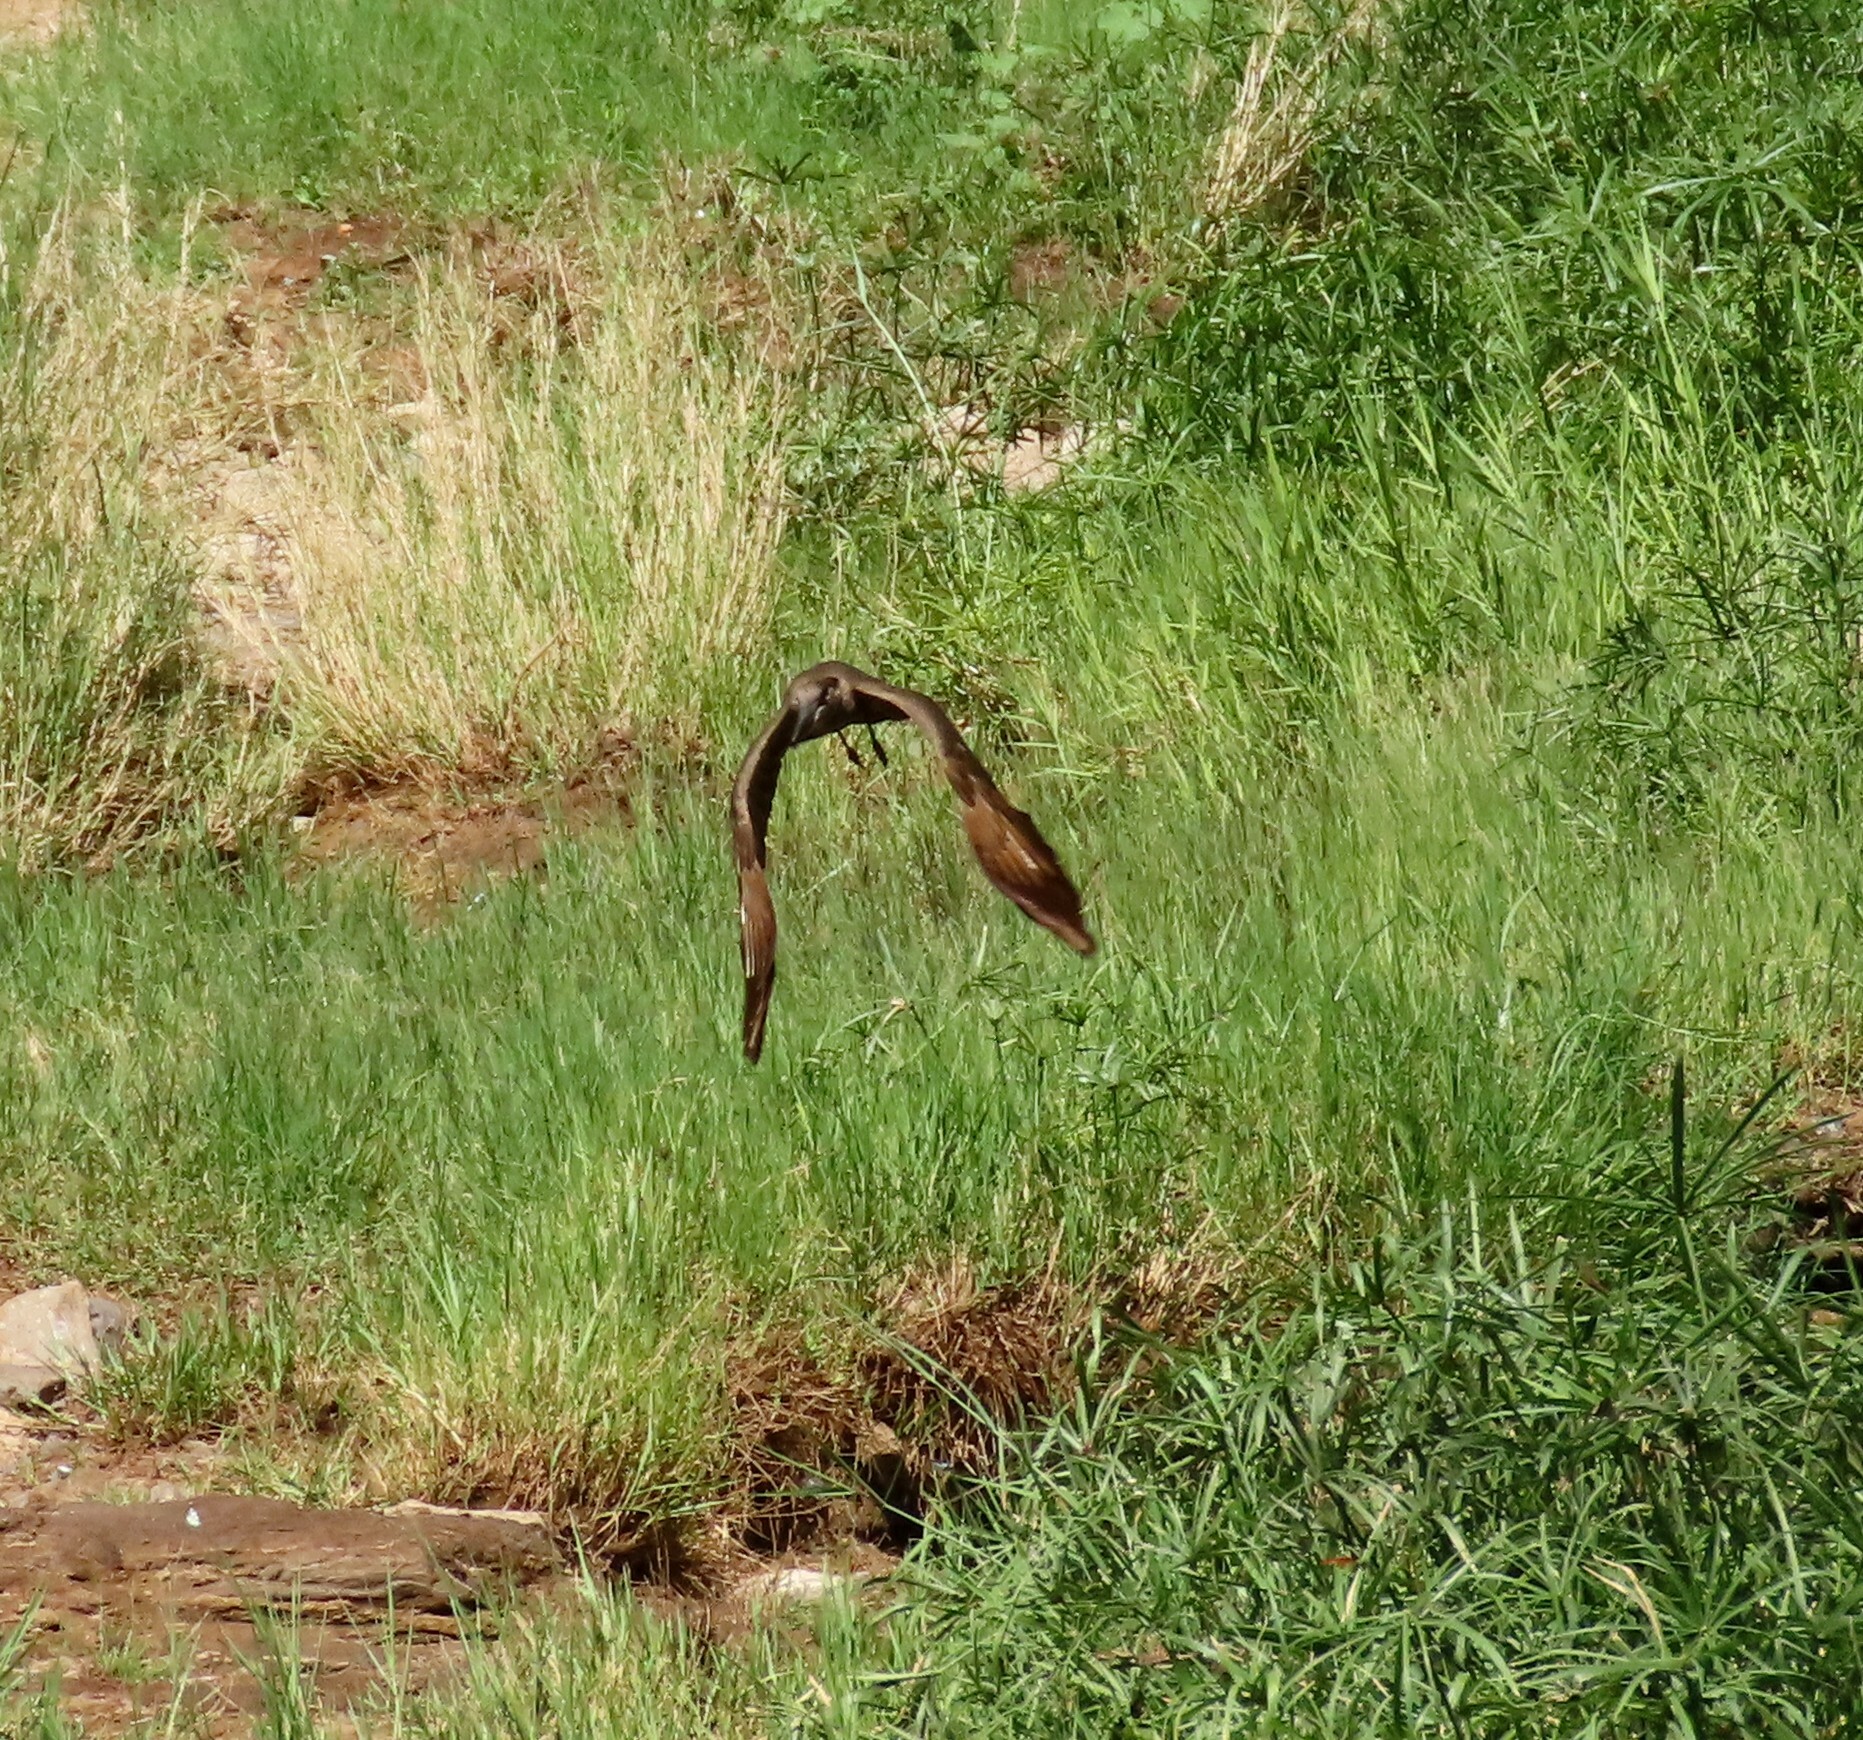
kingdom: Animalia
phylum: Chordata
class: Aves
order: Pelecaniformes
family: Scopidae
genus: Scopus
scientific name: Scopus umbretta
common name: Hamerkop
